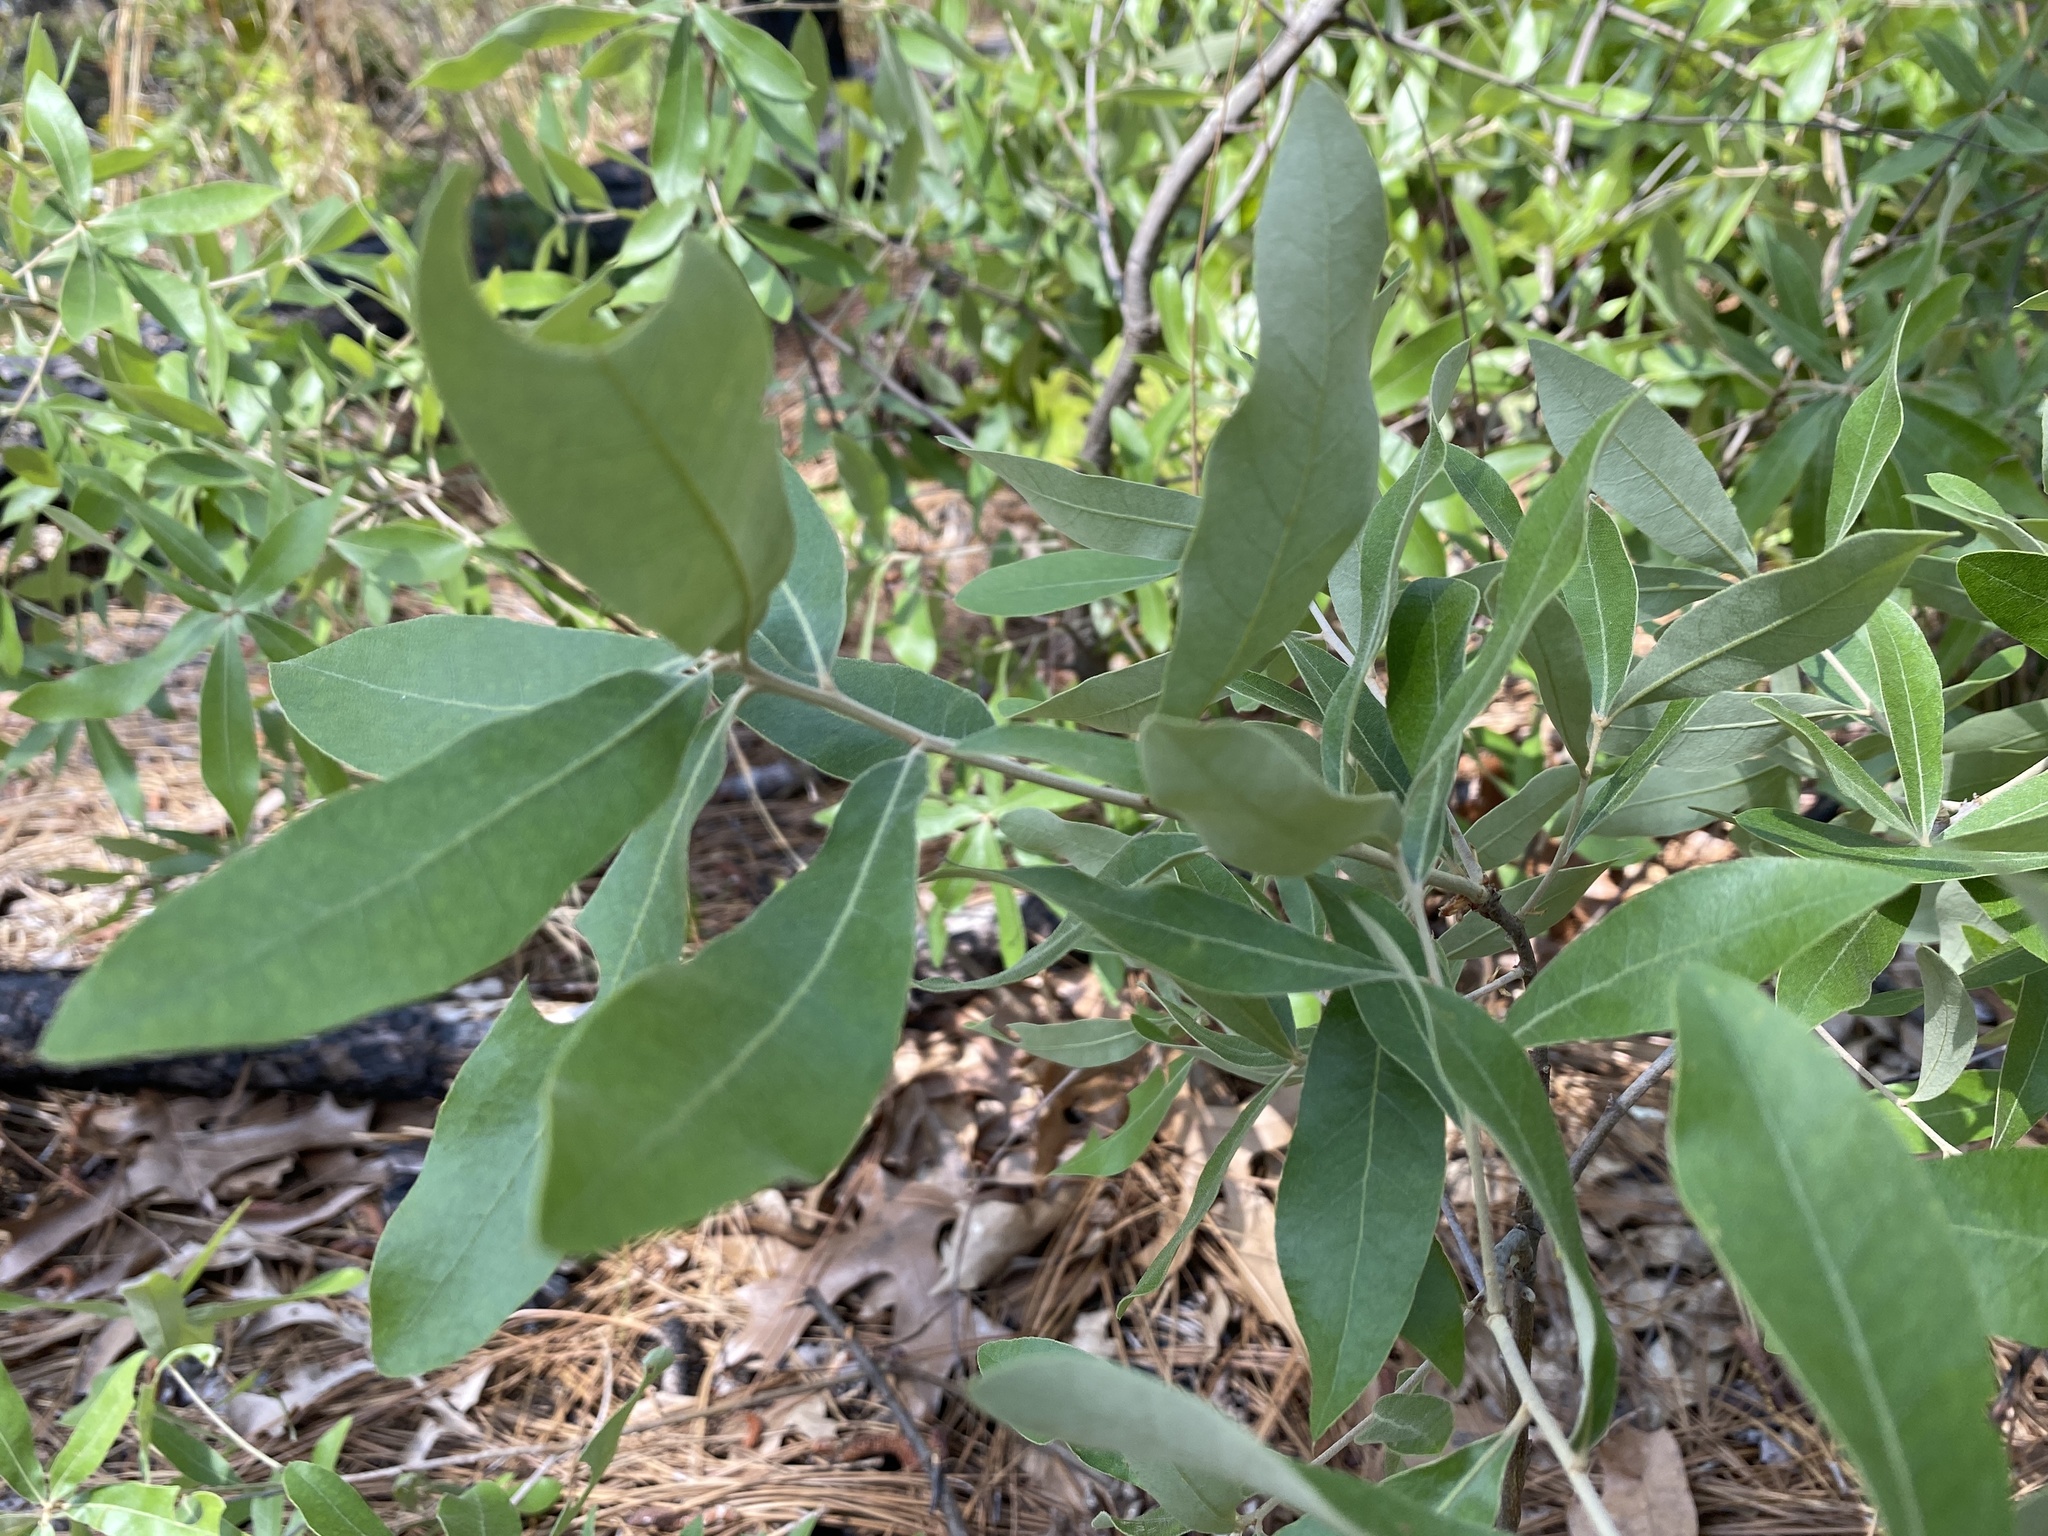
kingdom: Plantae
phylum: Tracheophyta
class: Magnoliopsida
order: Fagales
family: Fagaceae
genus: Quercus
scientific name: Quercus incana
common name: Bluejack oak
